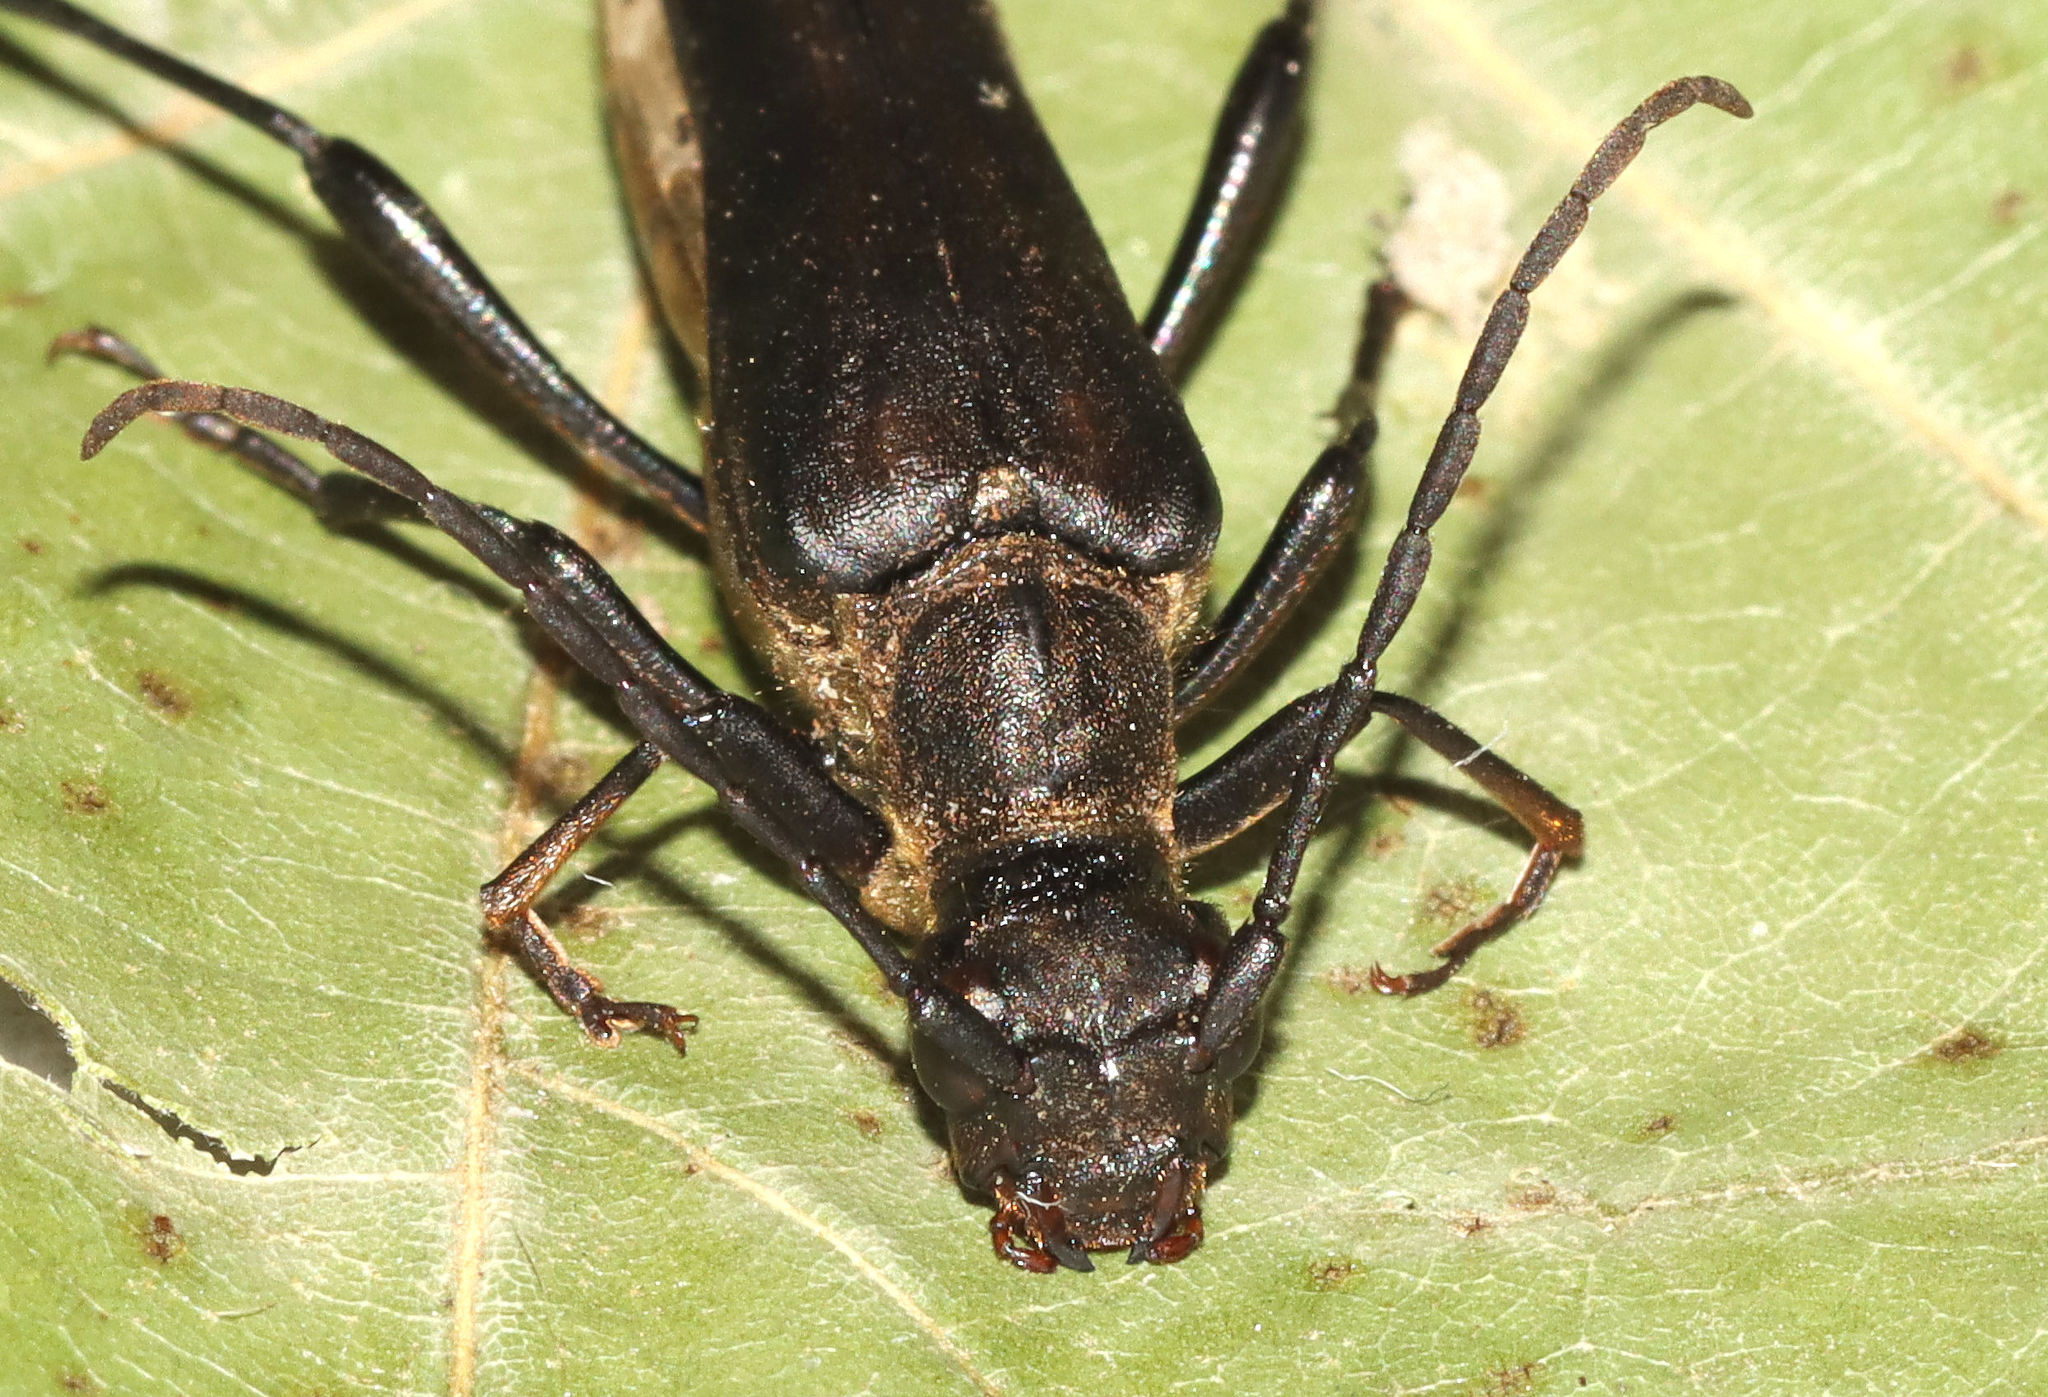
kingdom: Animalia
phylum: Arthropoda
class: Insecta
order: Coleoptera
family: Cerambycidae
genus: Bellamira
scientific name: Bellamira scalaris
